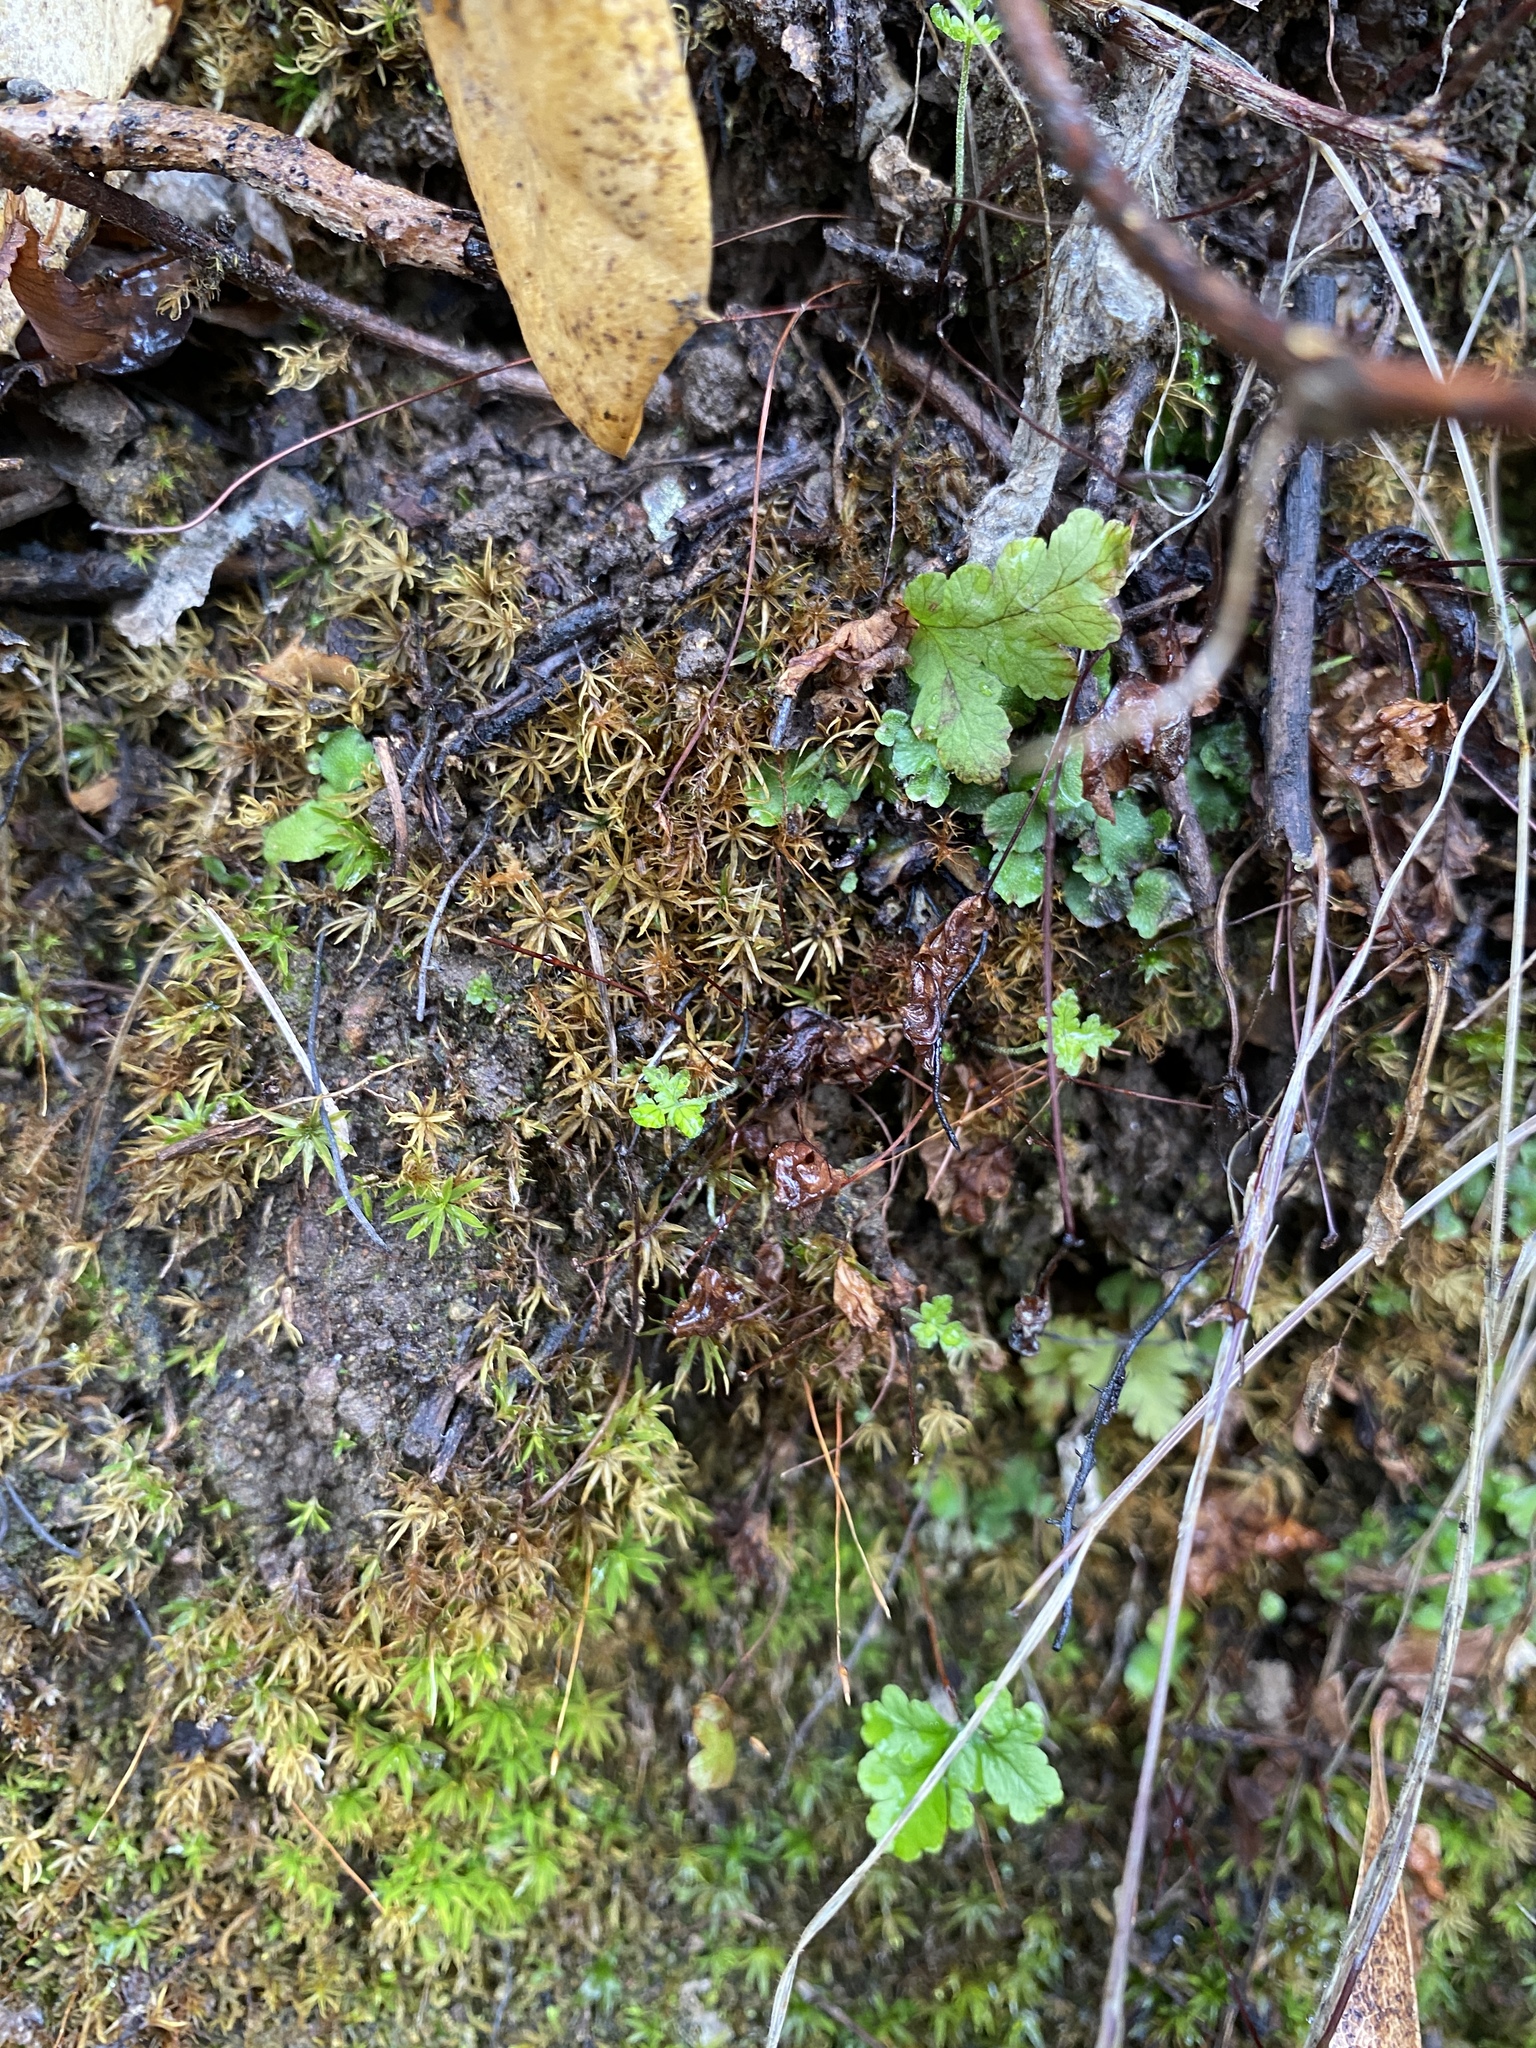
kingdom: Plantae
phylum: Tracheophyta
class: Polypodiopsida
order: Polypodiales
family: Pteridaceae
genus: Pentagramma
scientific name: Pentagramma triangularis
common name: Gold fern
